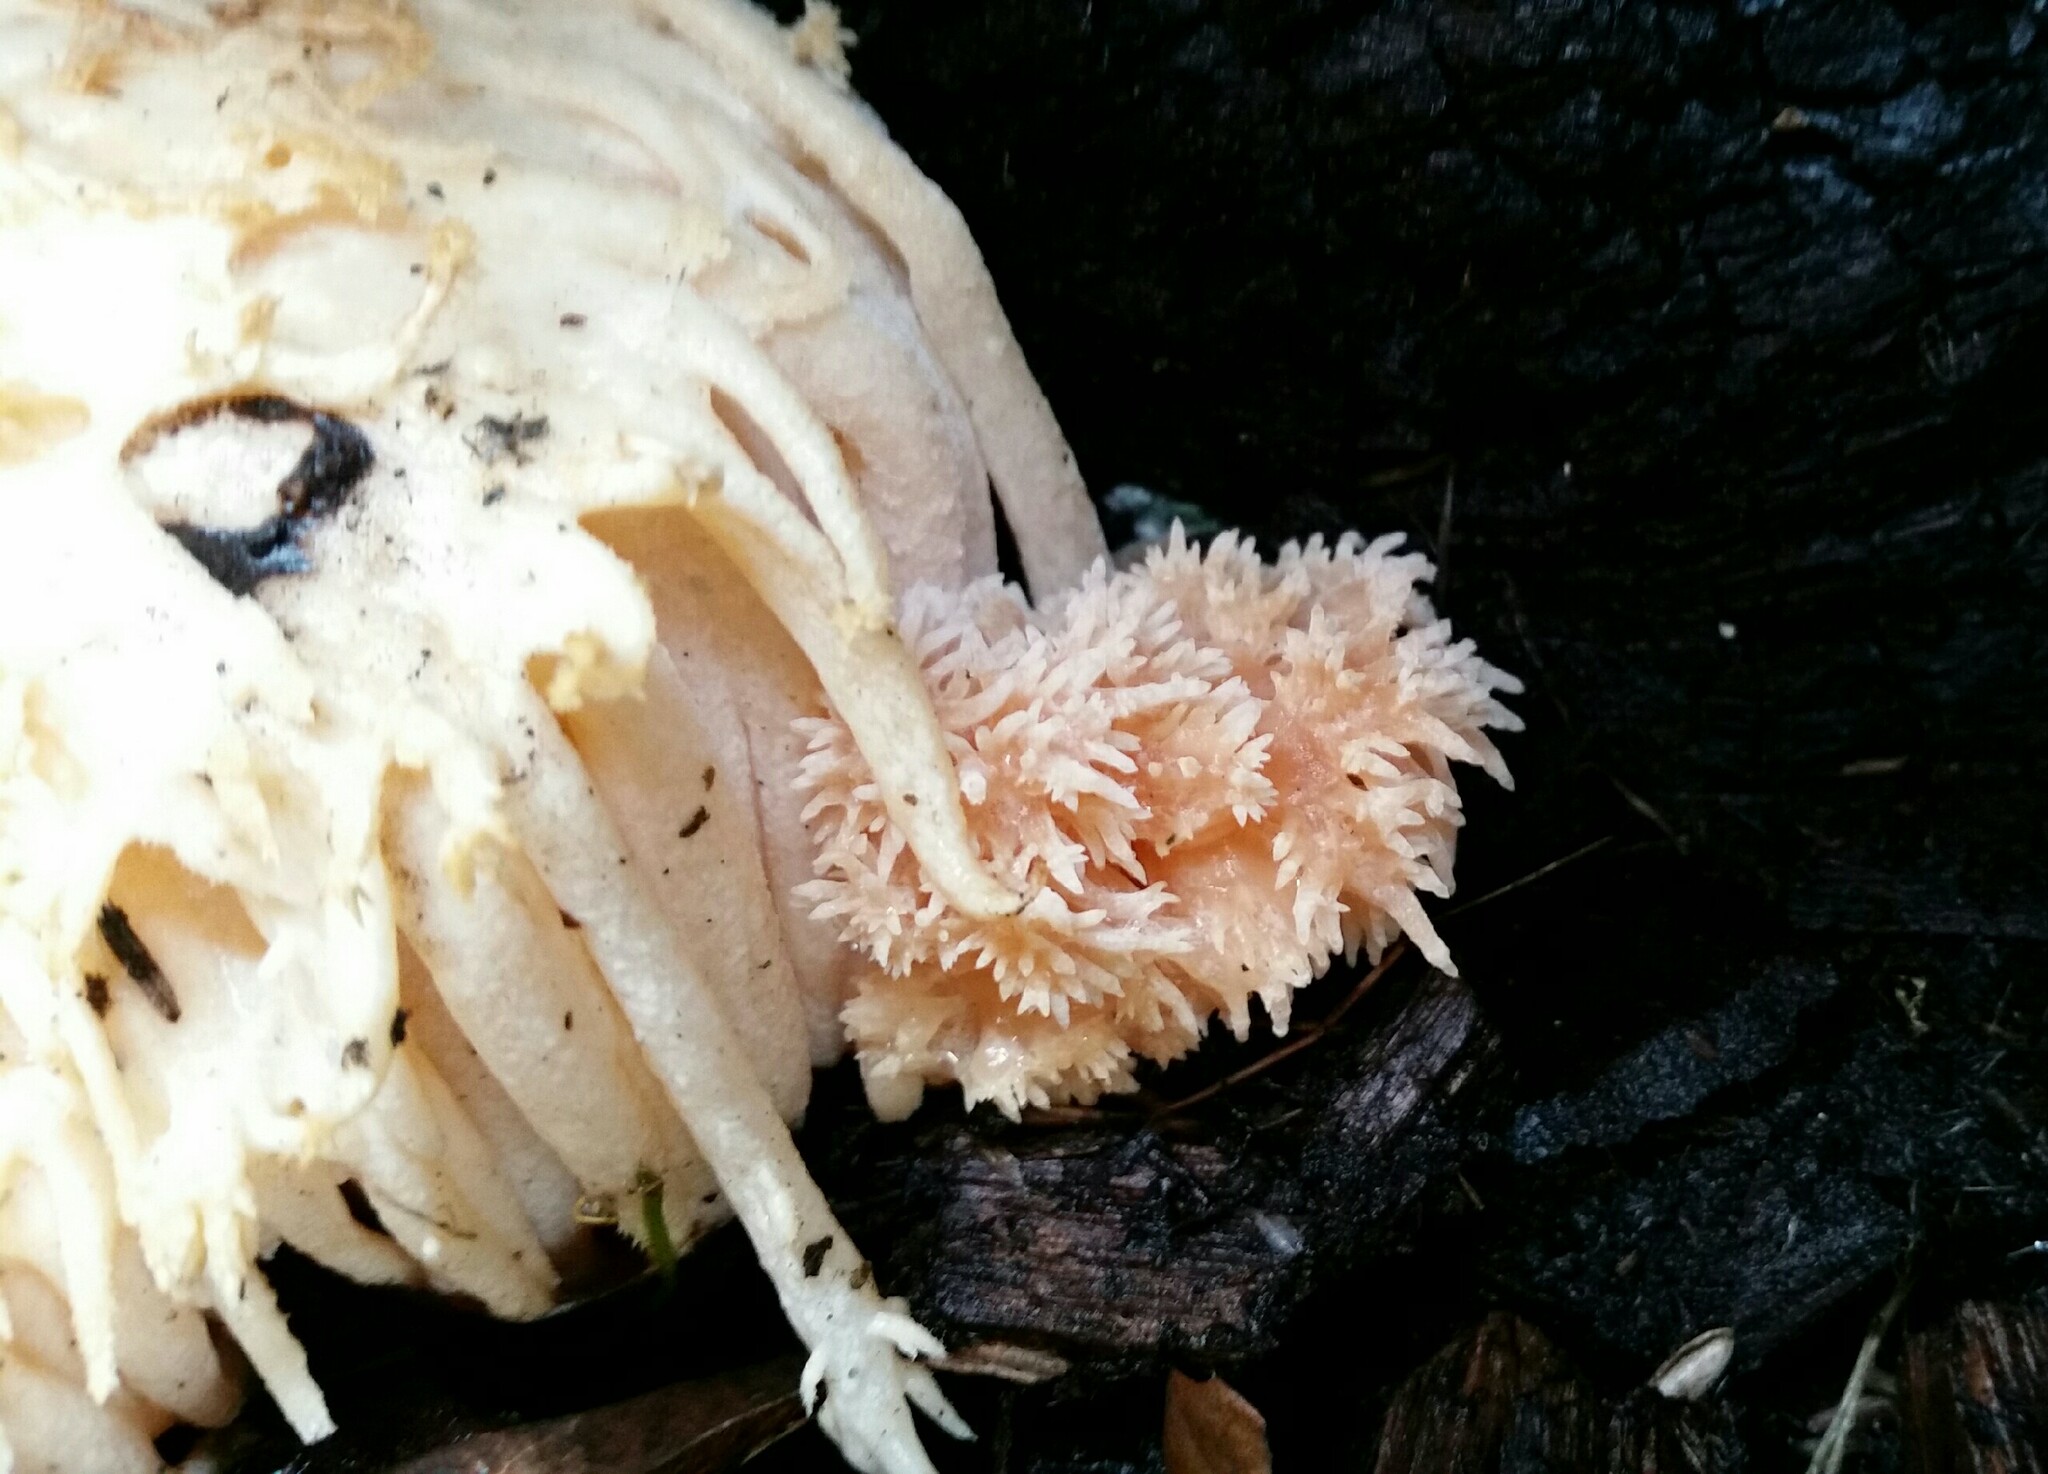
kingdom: Fungi
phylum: Basidiomycota
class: Agaricomycetes
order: Russulales
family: Hericiaceae
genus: Hericium
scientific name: Hericium erinaceus
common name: Bearded tooth
